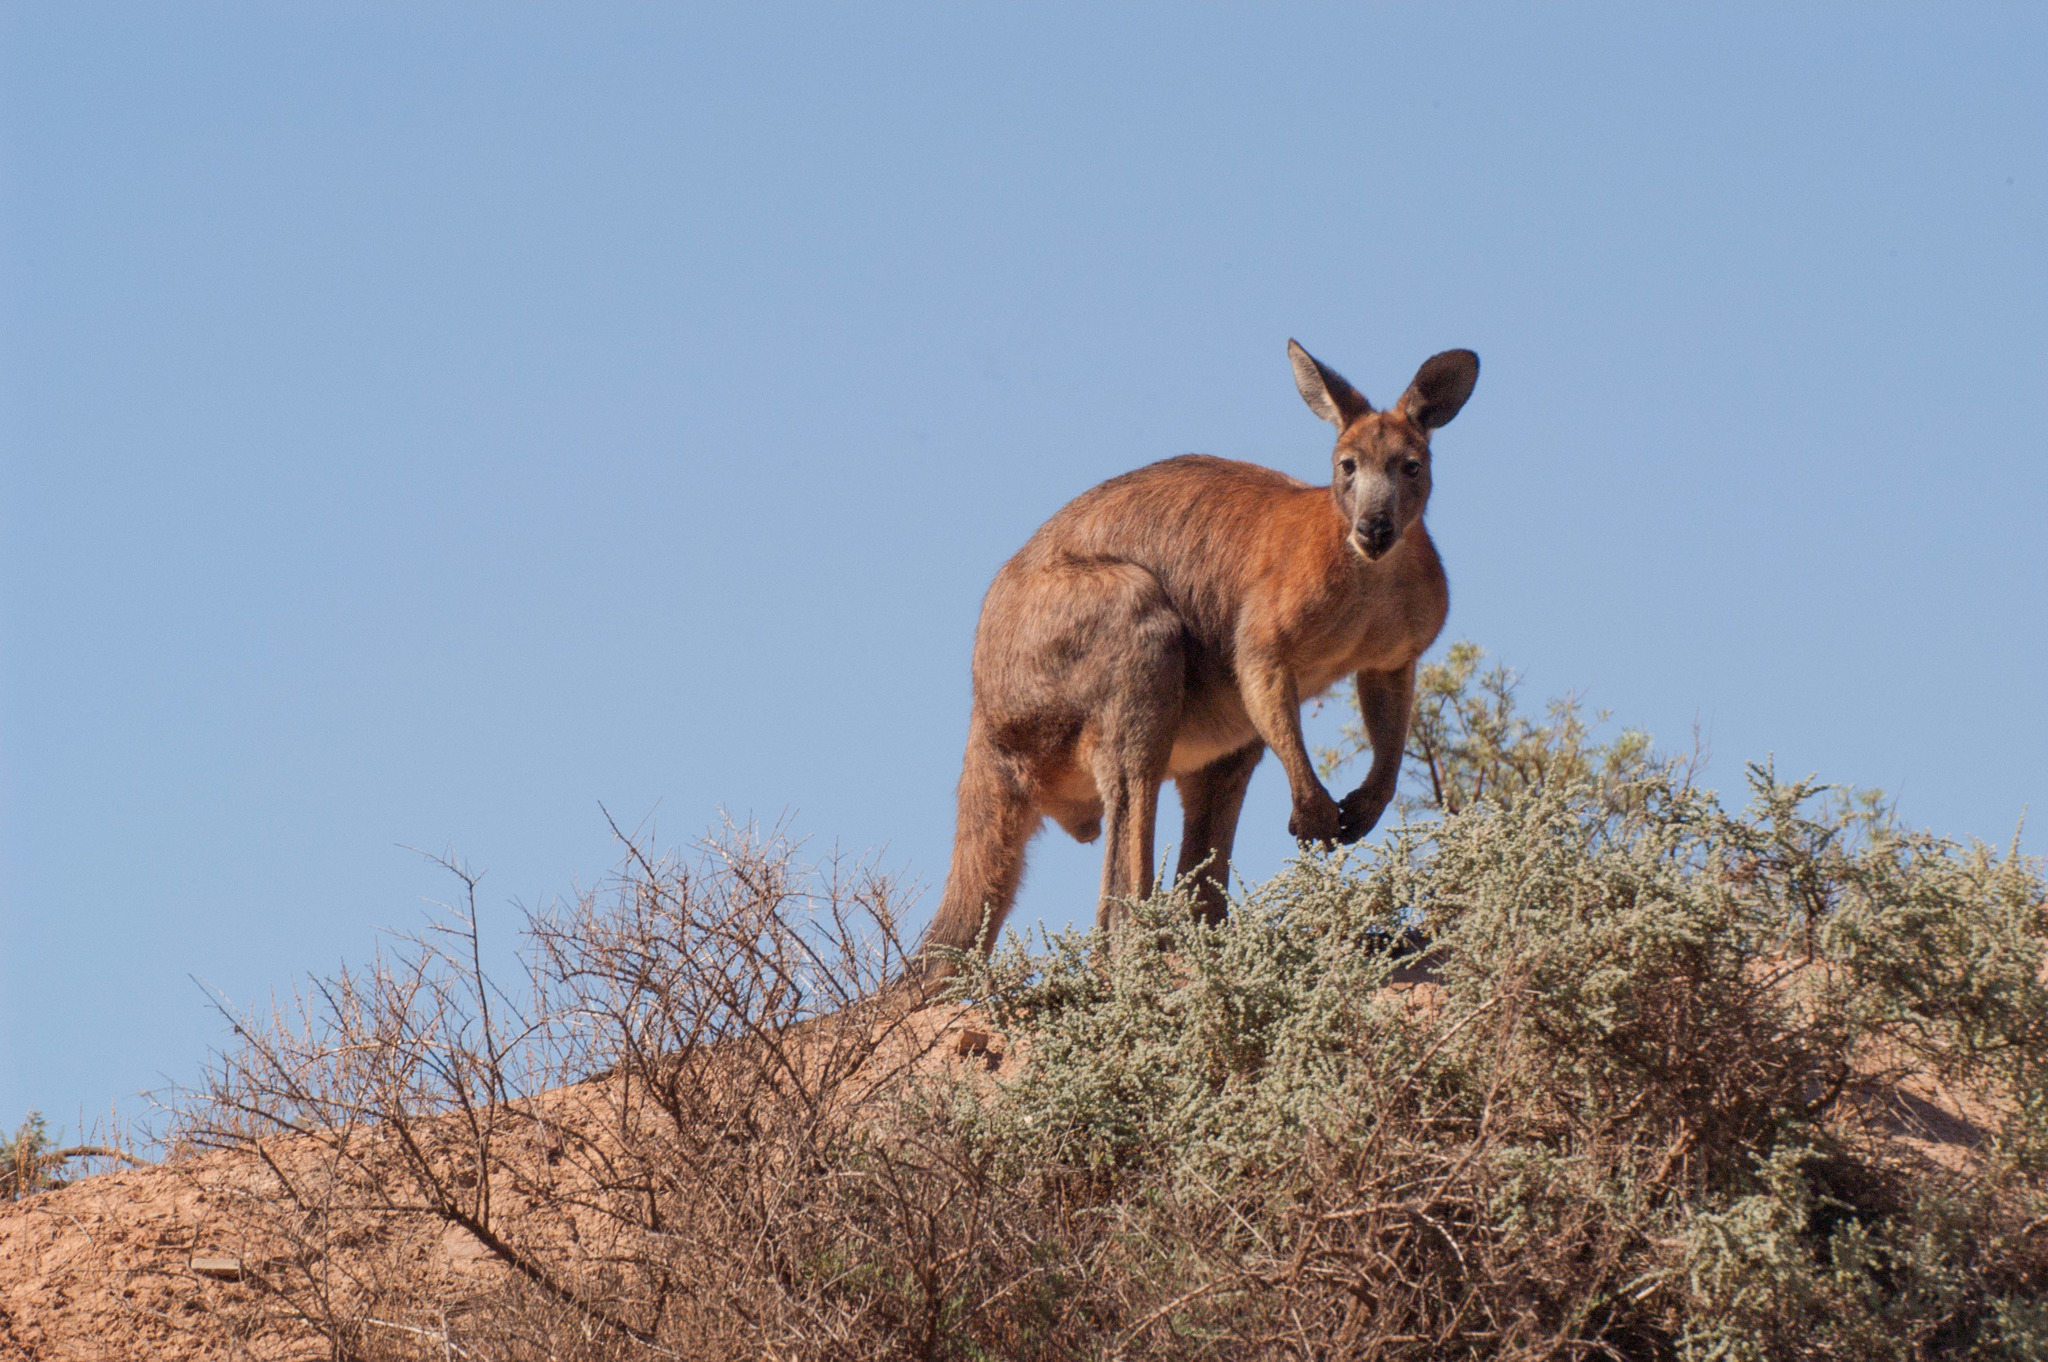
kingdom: Animalia
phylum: Chordata
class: Mammalia
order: Diprotodontia
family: Macropodidae
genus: Macropus
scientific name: Macropus robustus
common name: Eastern wallaroo
